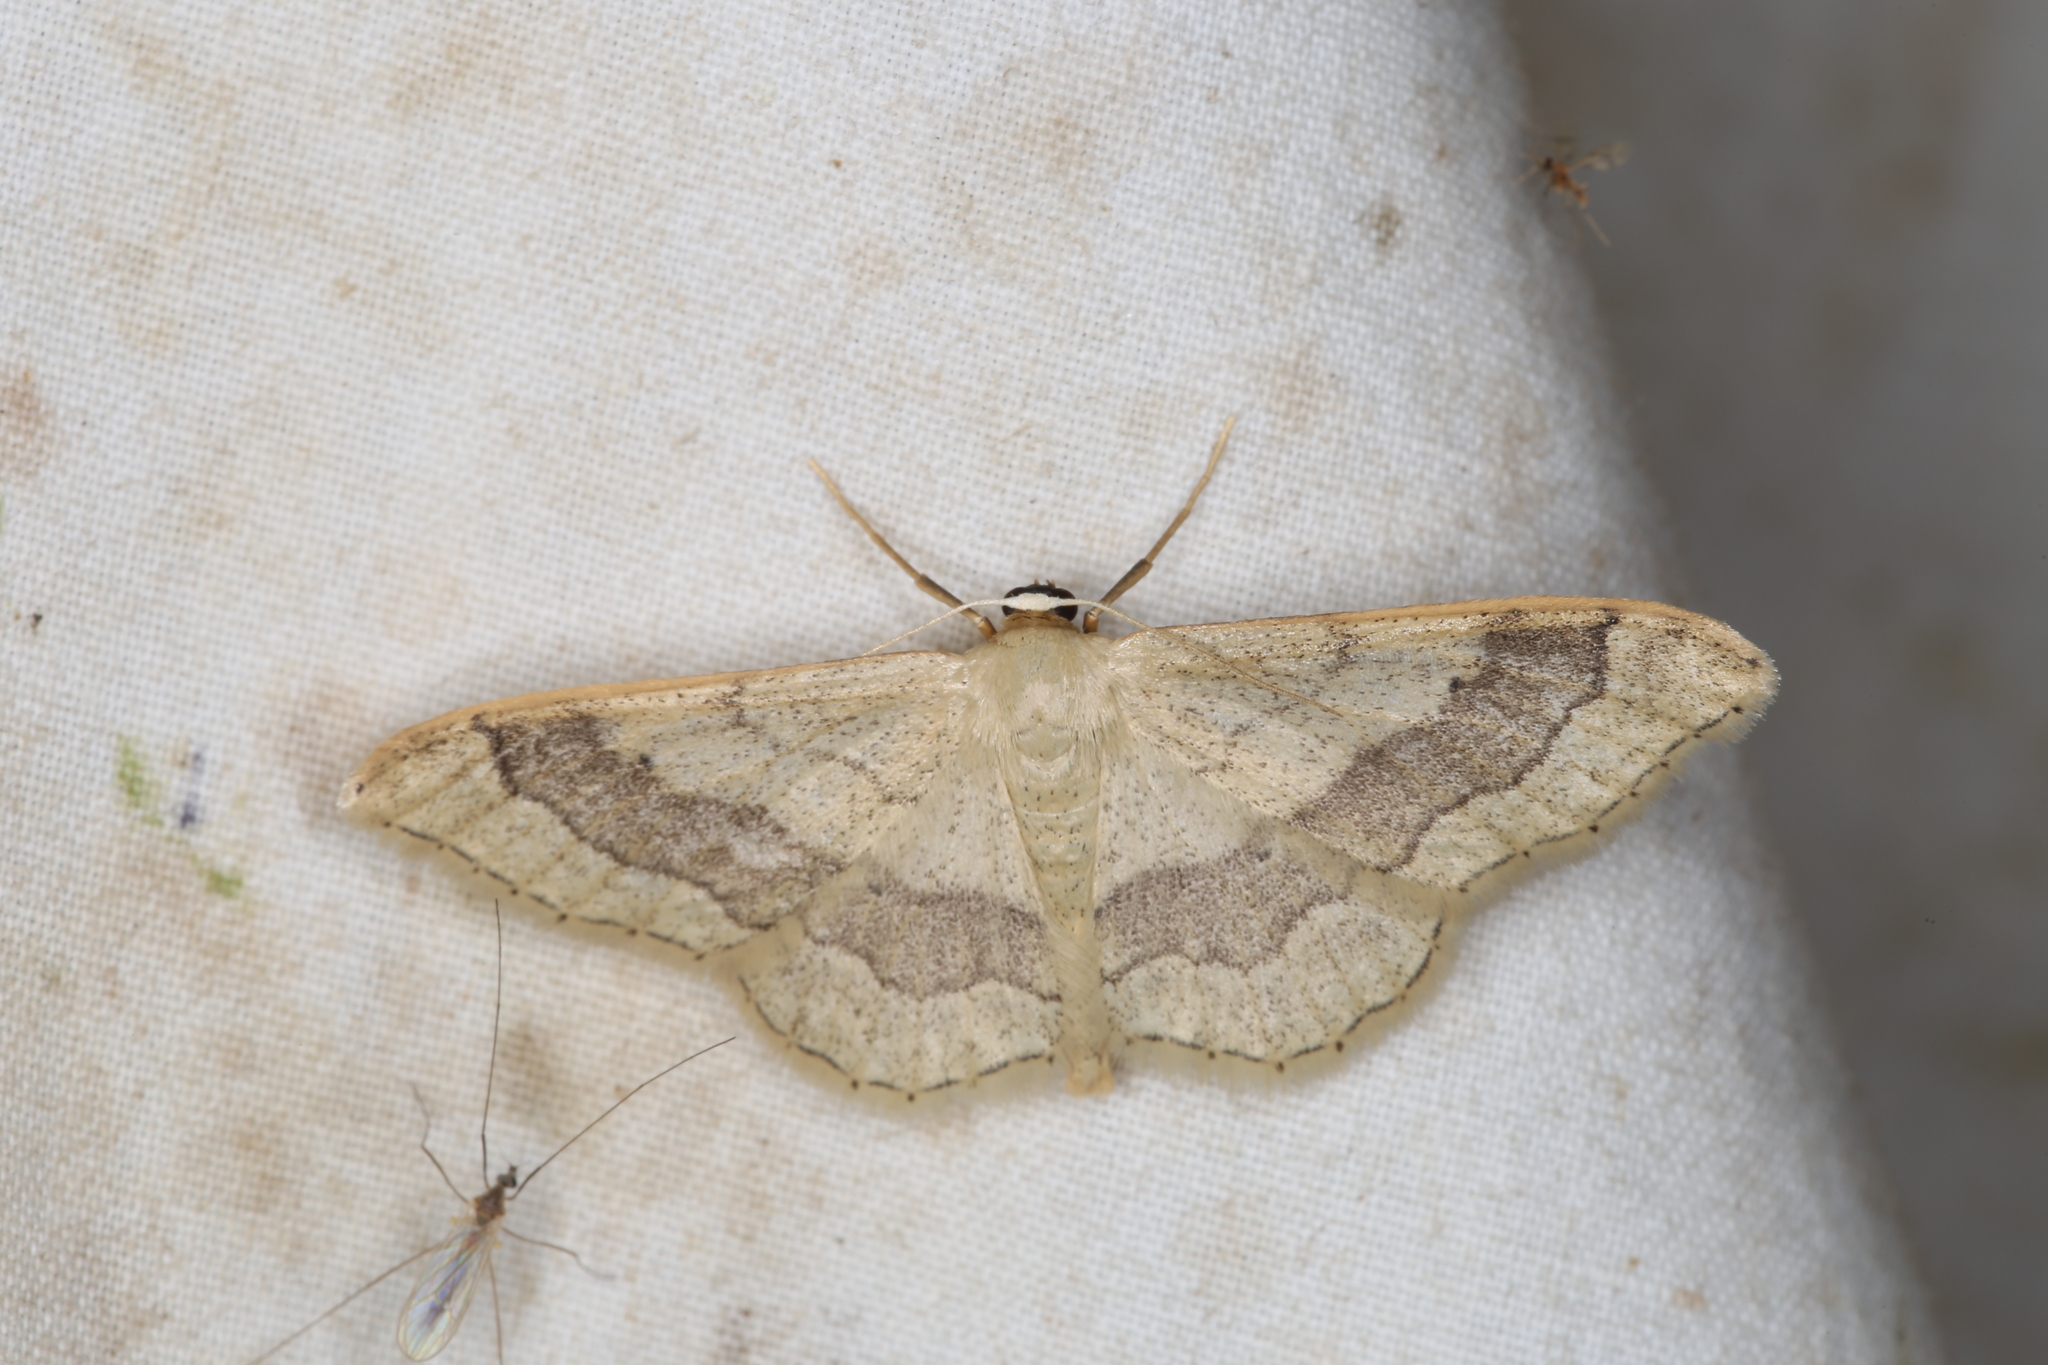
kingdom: Animalia
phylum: Arthropoda
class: Insecta
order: Lepidoptera
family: Geometridae
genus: Idaea
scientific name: Idaea aversata
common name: Riband wave
